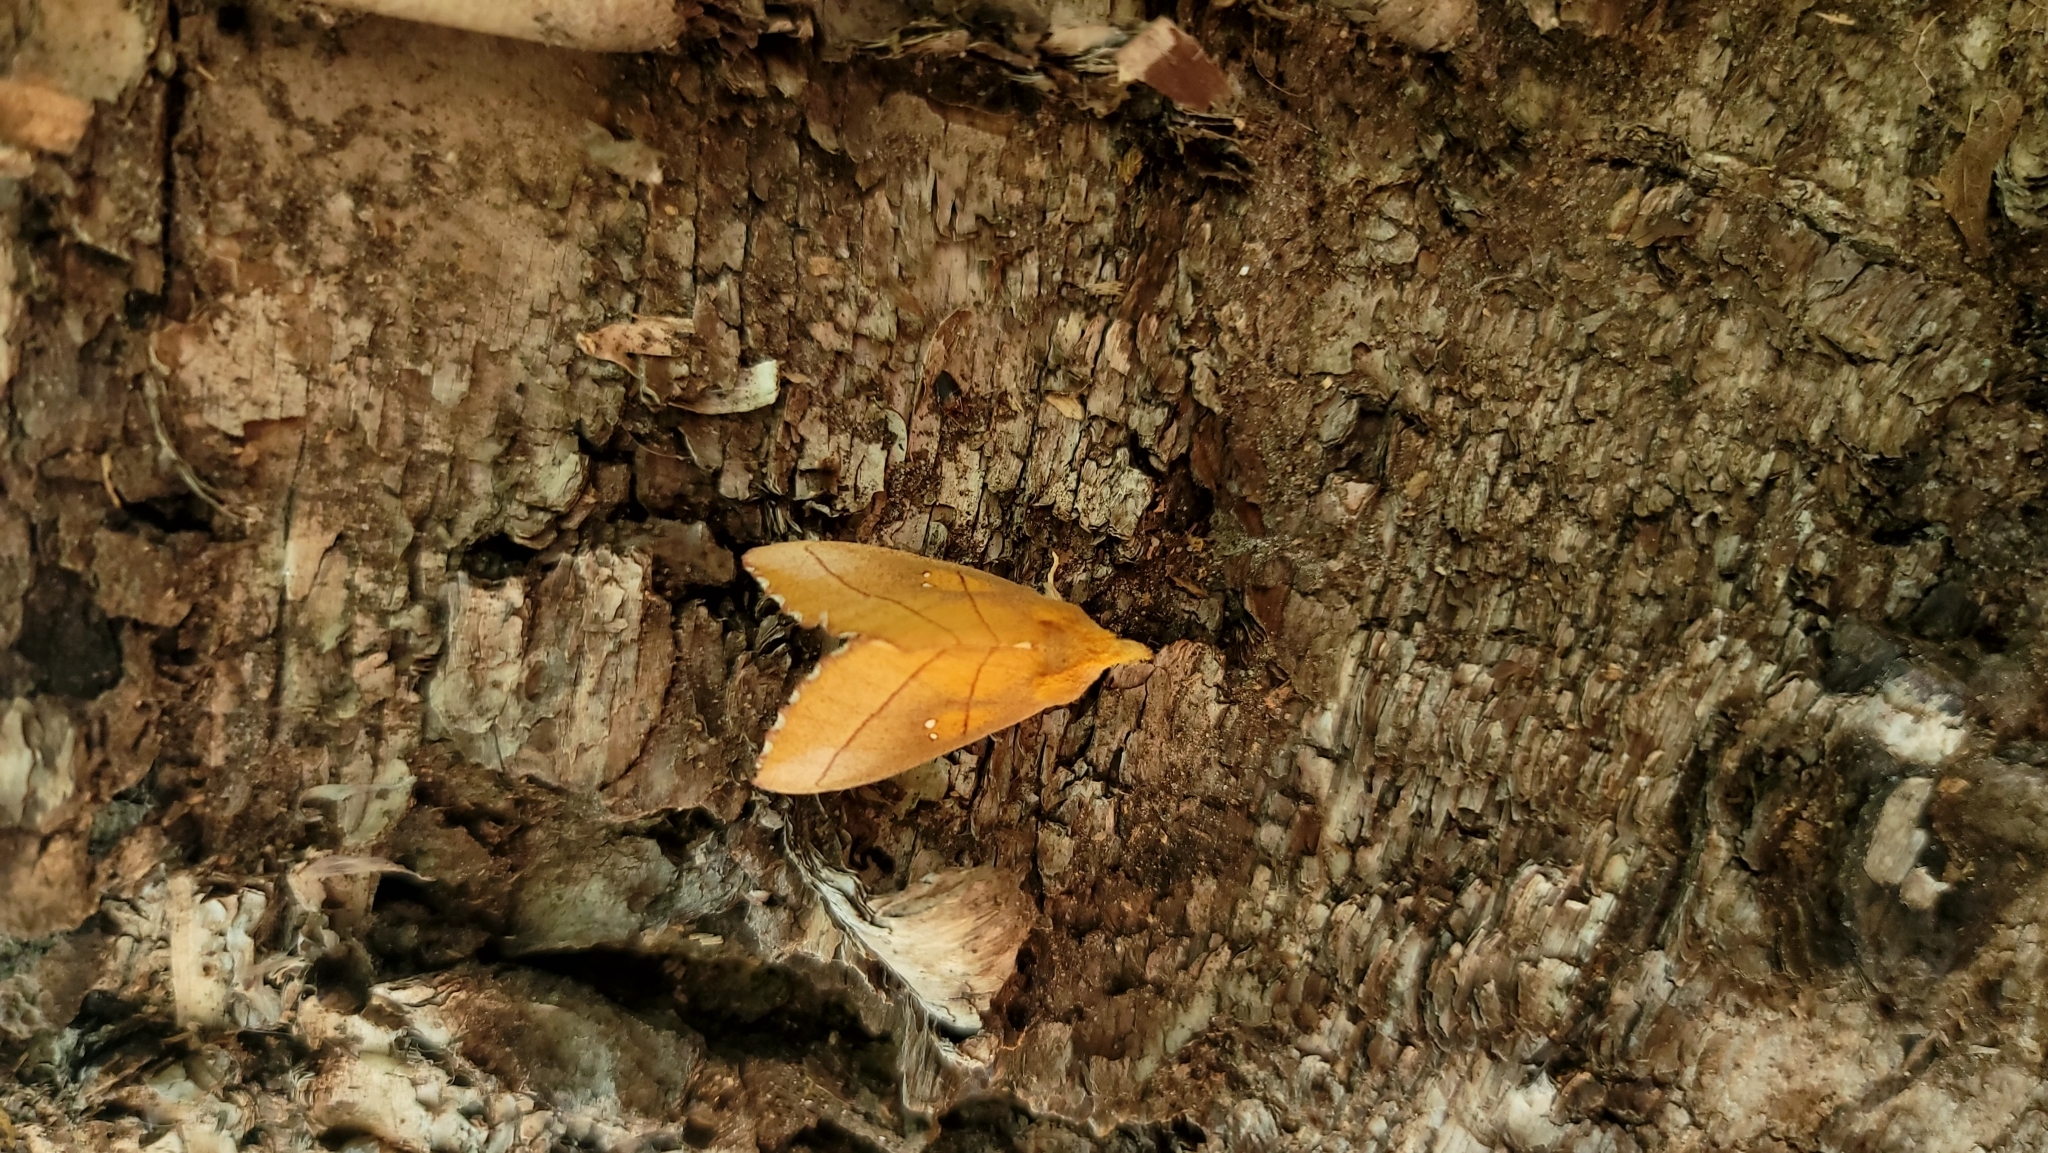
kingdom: Animalia
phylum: Arthropoda
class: Insecta
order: Lepidoptera
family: Notodontidae
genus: Nadata
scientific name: Nadata gibbosa
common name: White-dotted prominent
